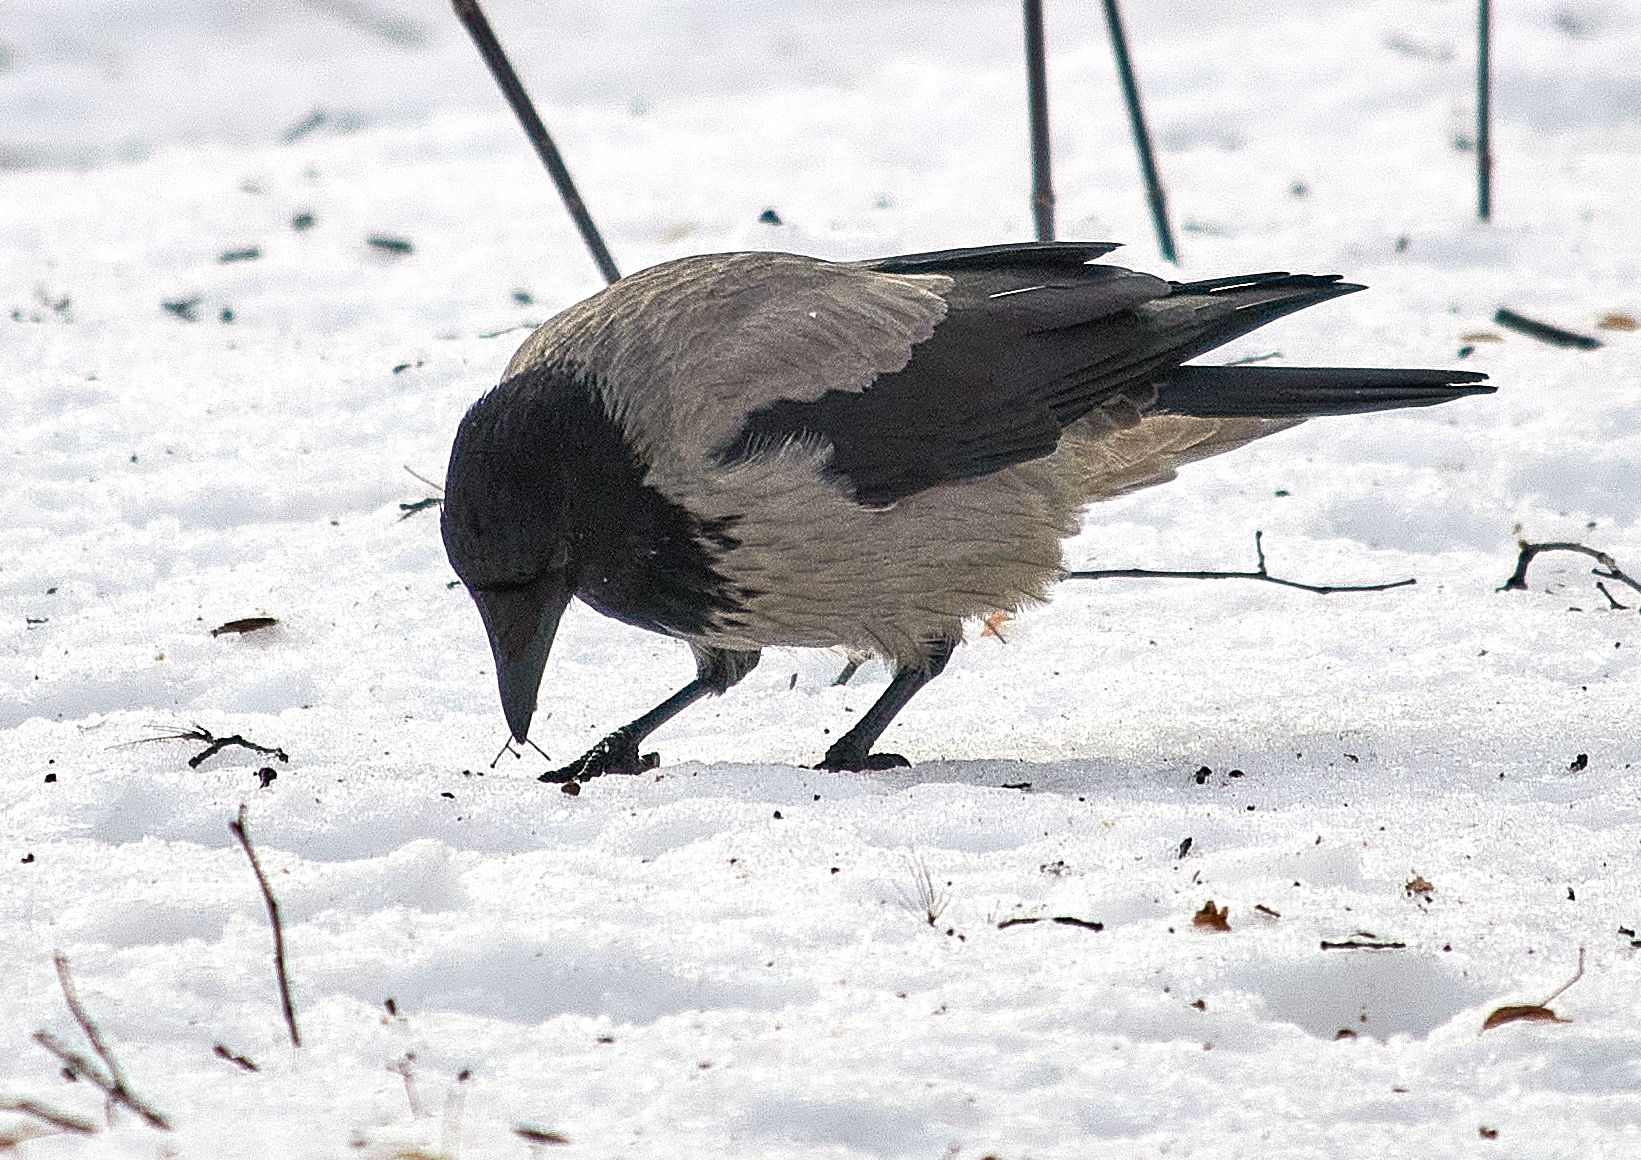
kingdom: Animalia
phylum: Chordata
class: Aves
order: Passeriformes
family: Corvidae
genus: Corvus
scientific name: Corvus cornix
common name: Hooded crow
